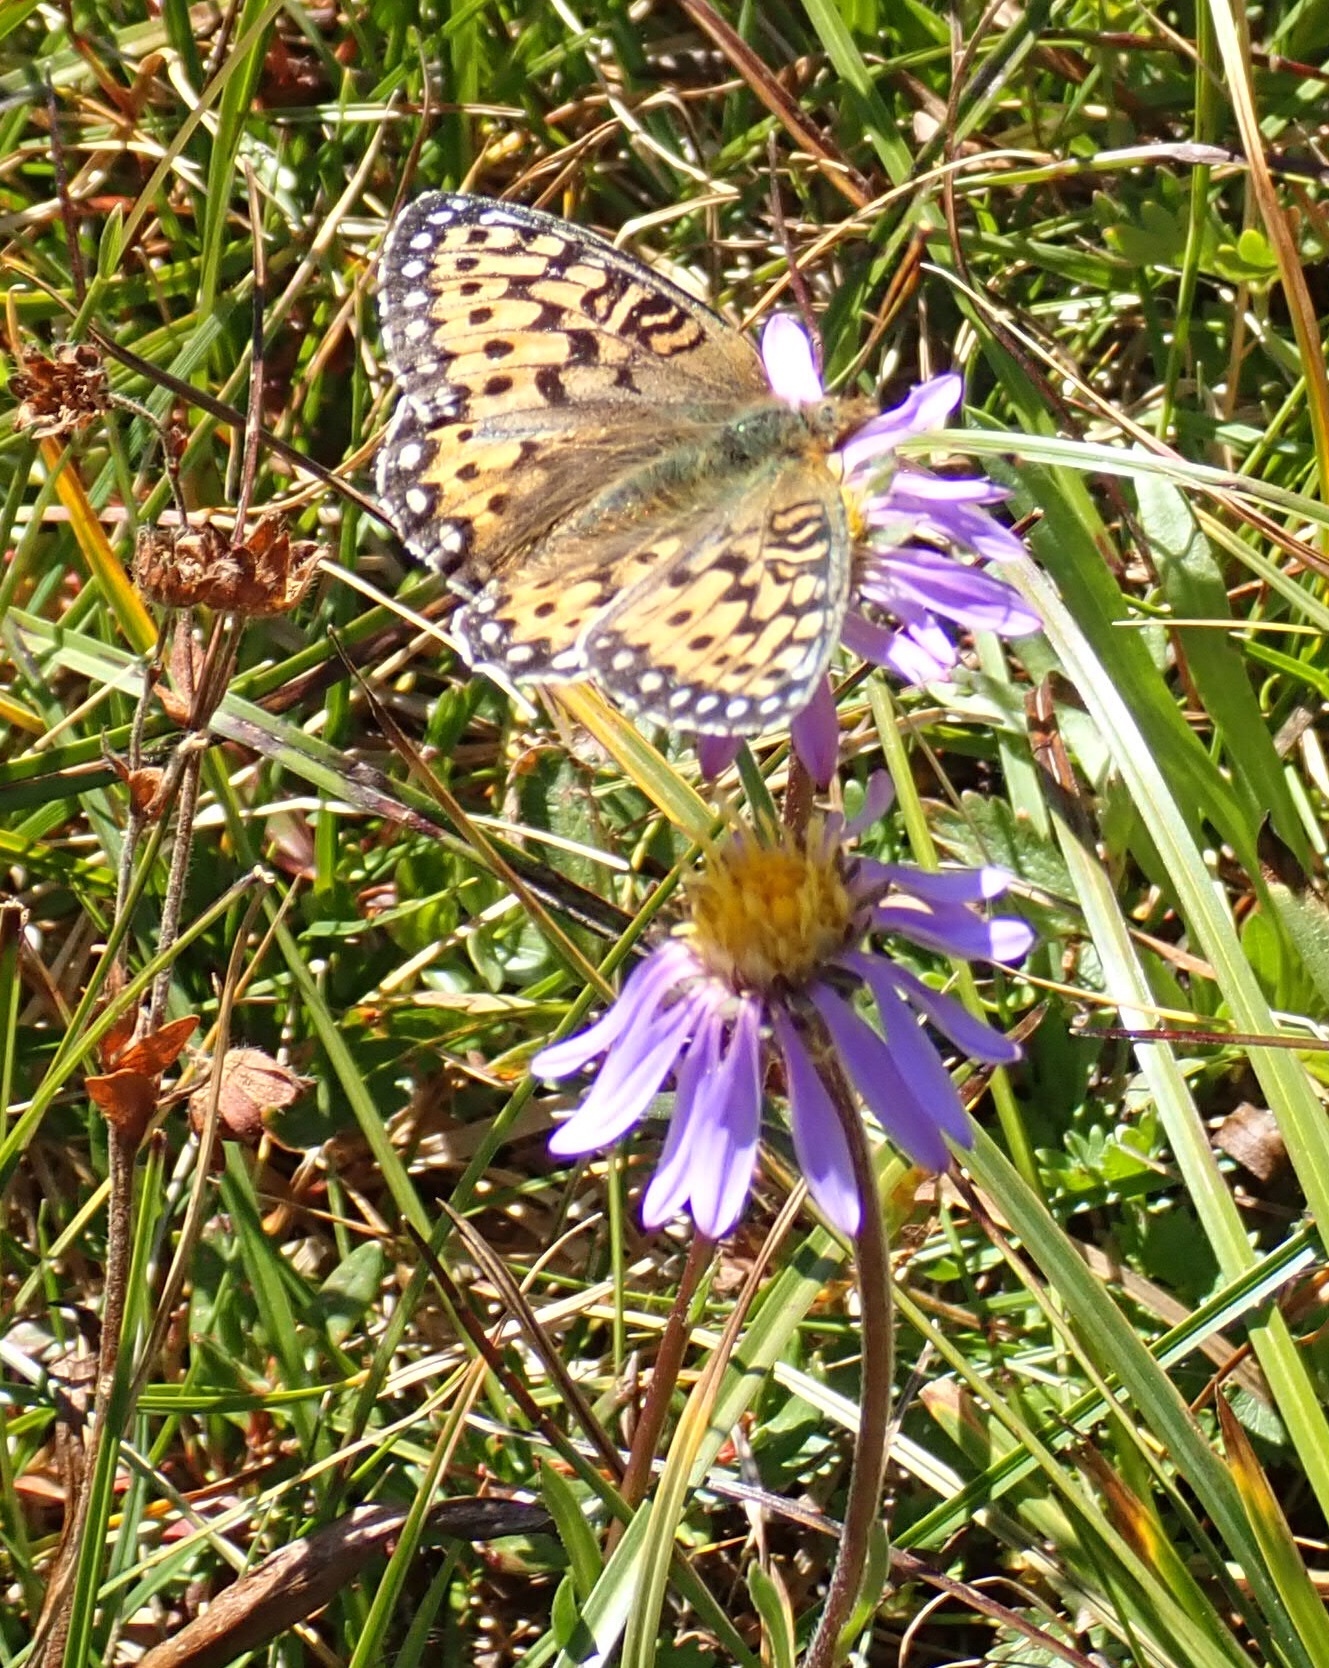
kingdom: Animalia
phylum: Arthropoda
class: Insecta
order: Lepidoptera
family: Nymphalidae
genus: Speyeria
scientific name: Speyeria mormonia
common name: Mormon fritillary
